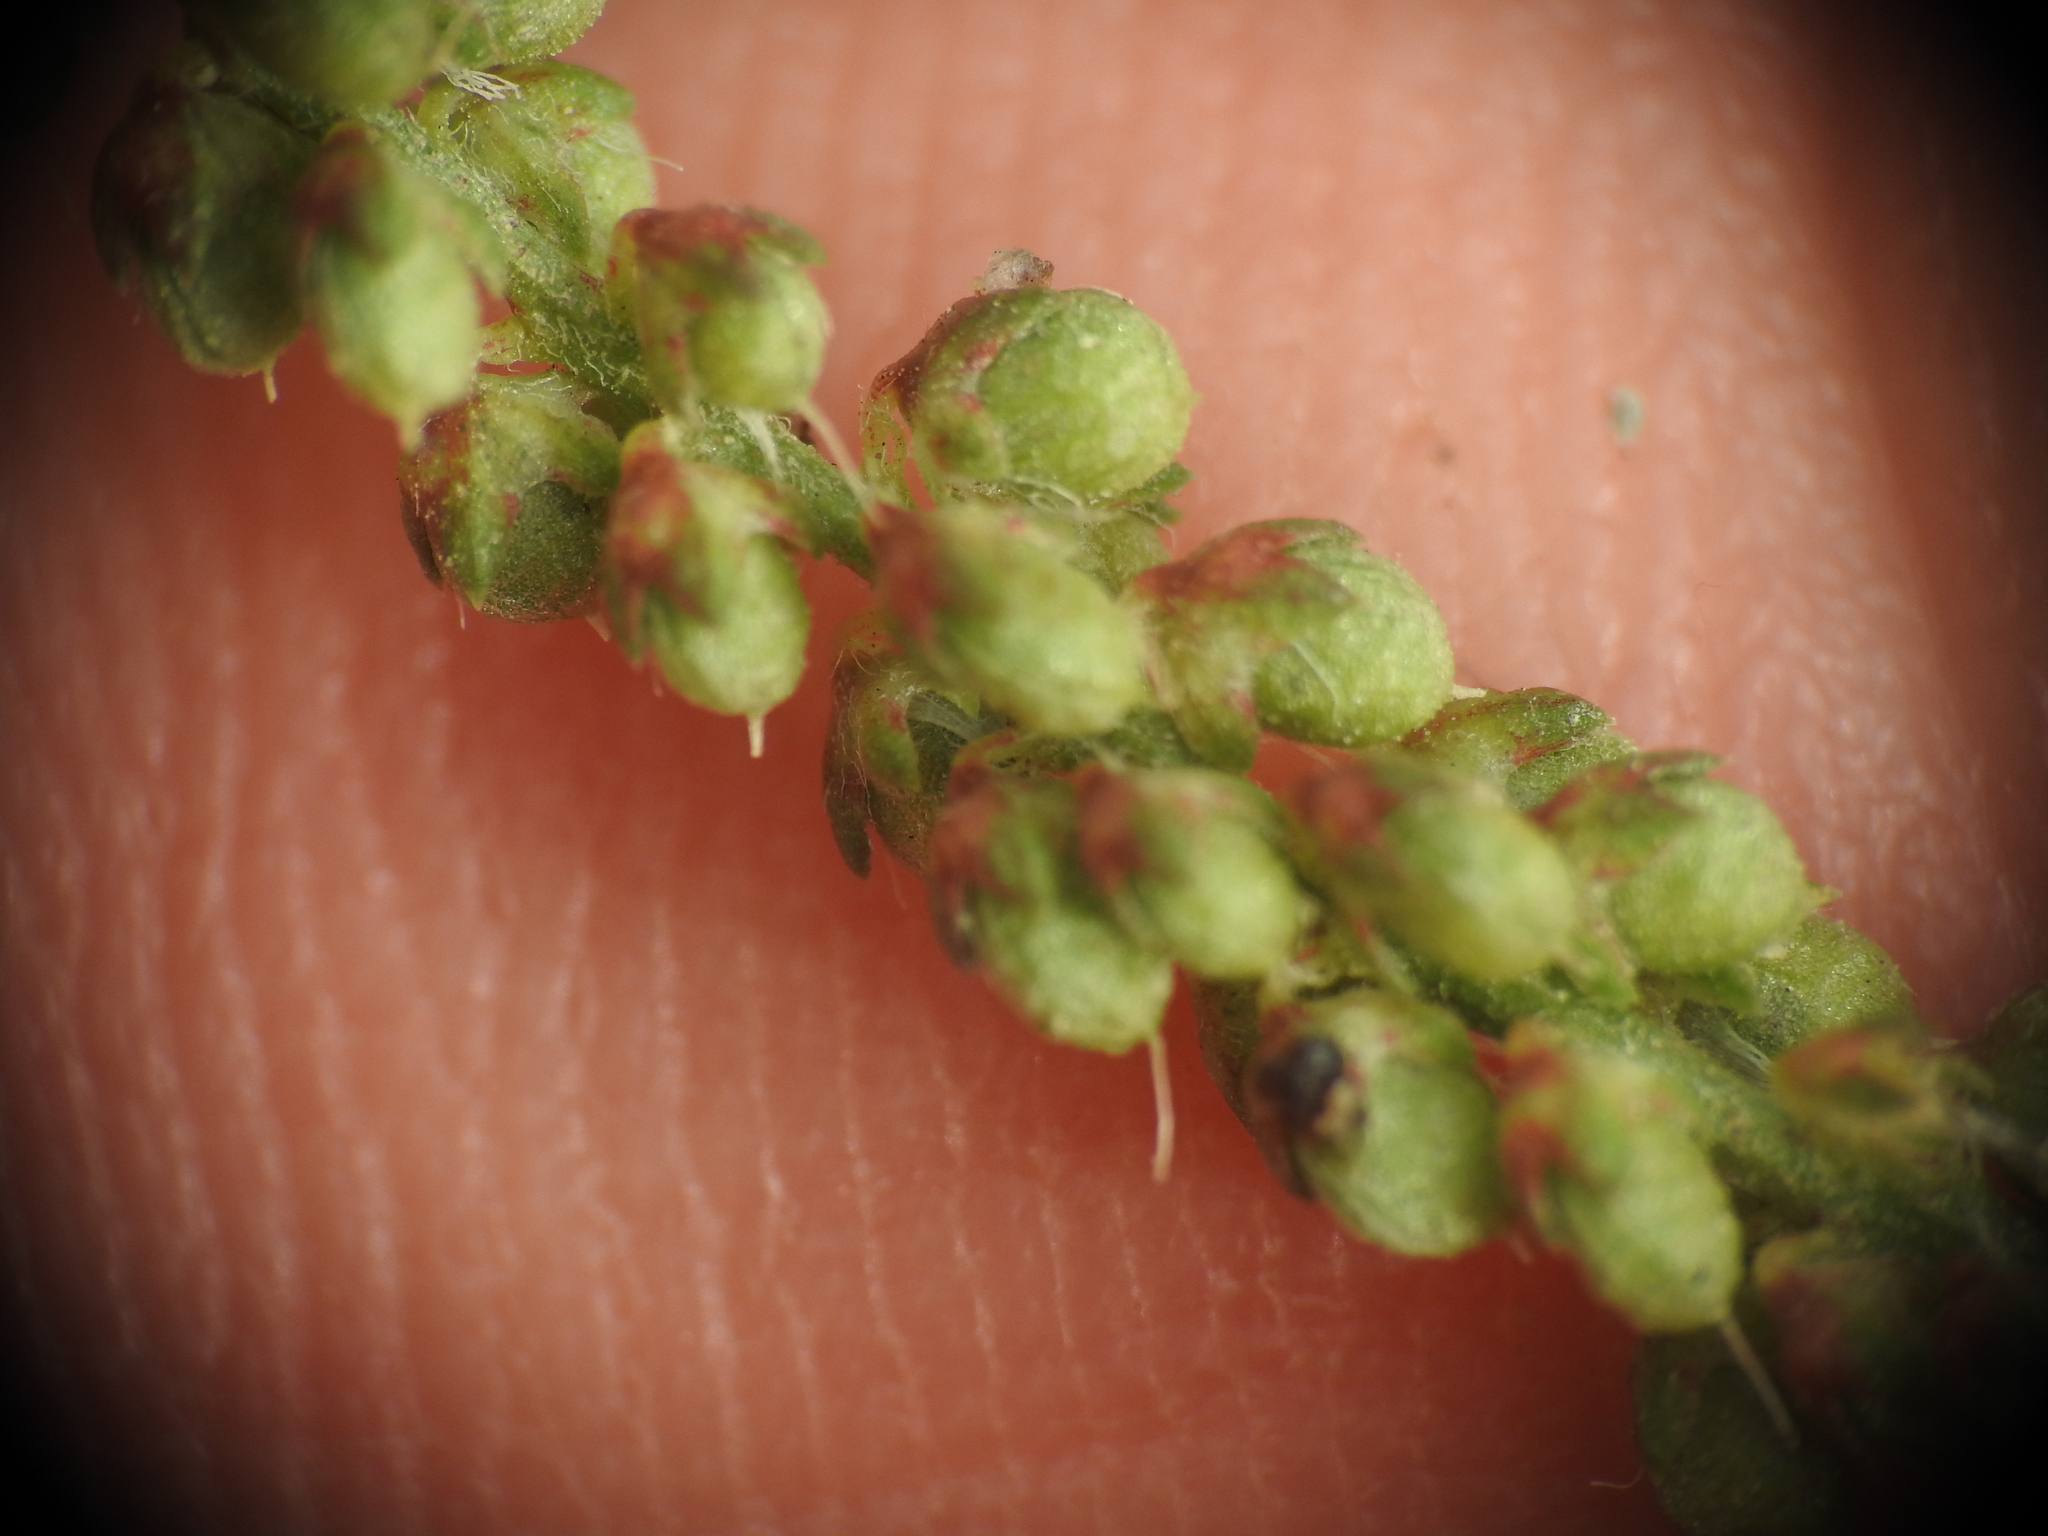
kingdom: Plantae
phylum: Tracheophyta
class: Magnoliopsida
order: Fabales
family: Fabaceae
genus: Melilotus
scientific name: Melilotus indicus
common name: Small melilot
